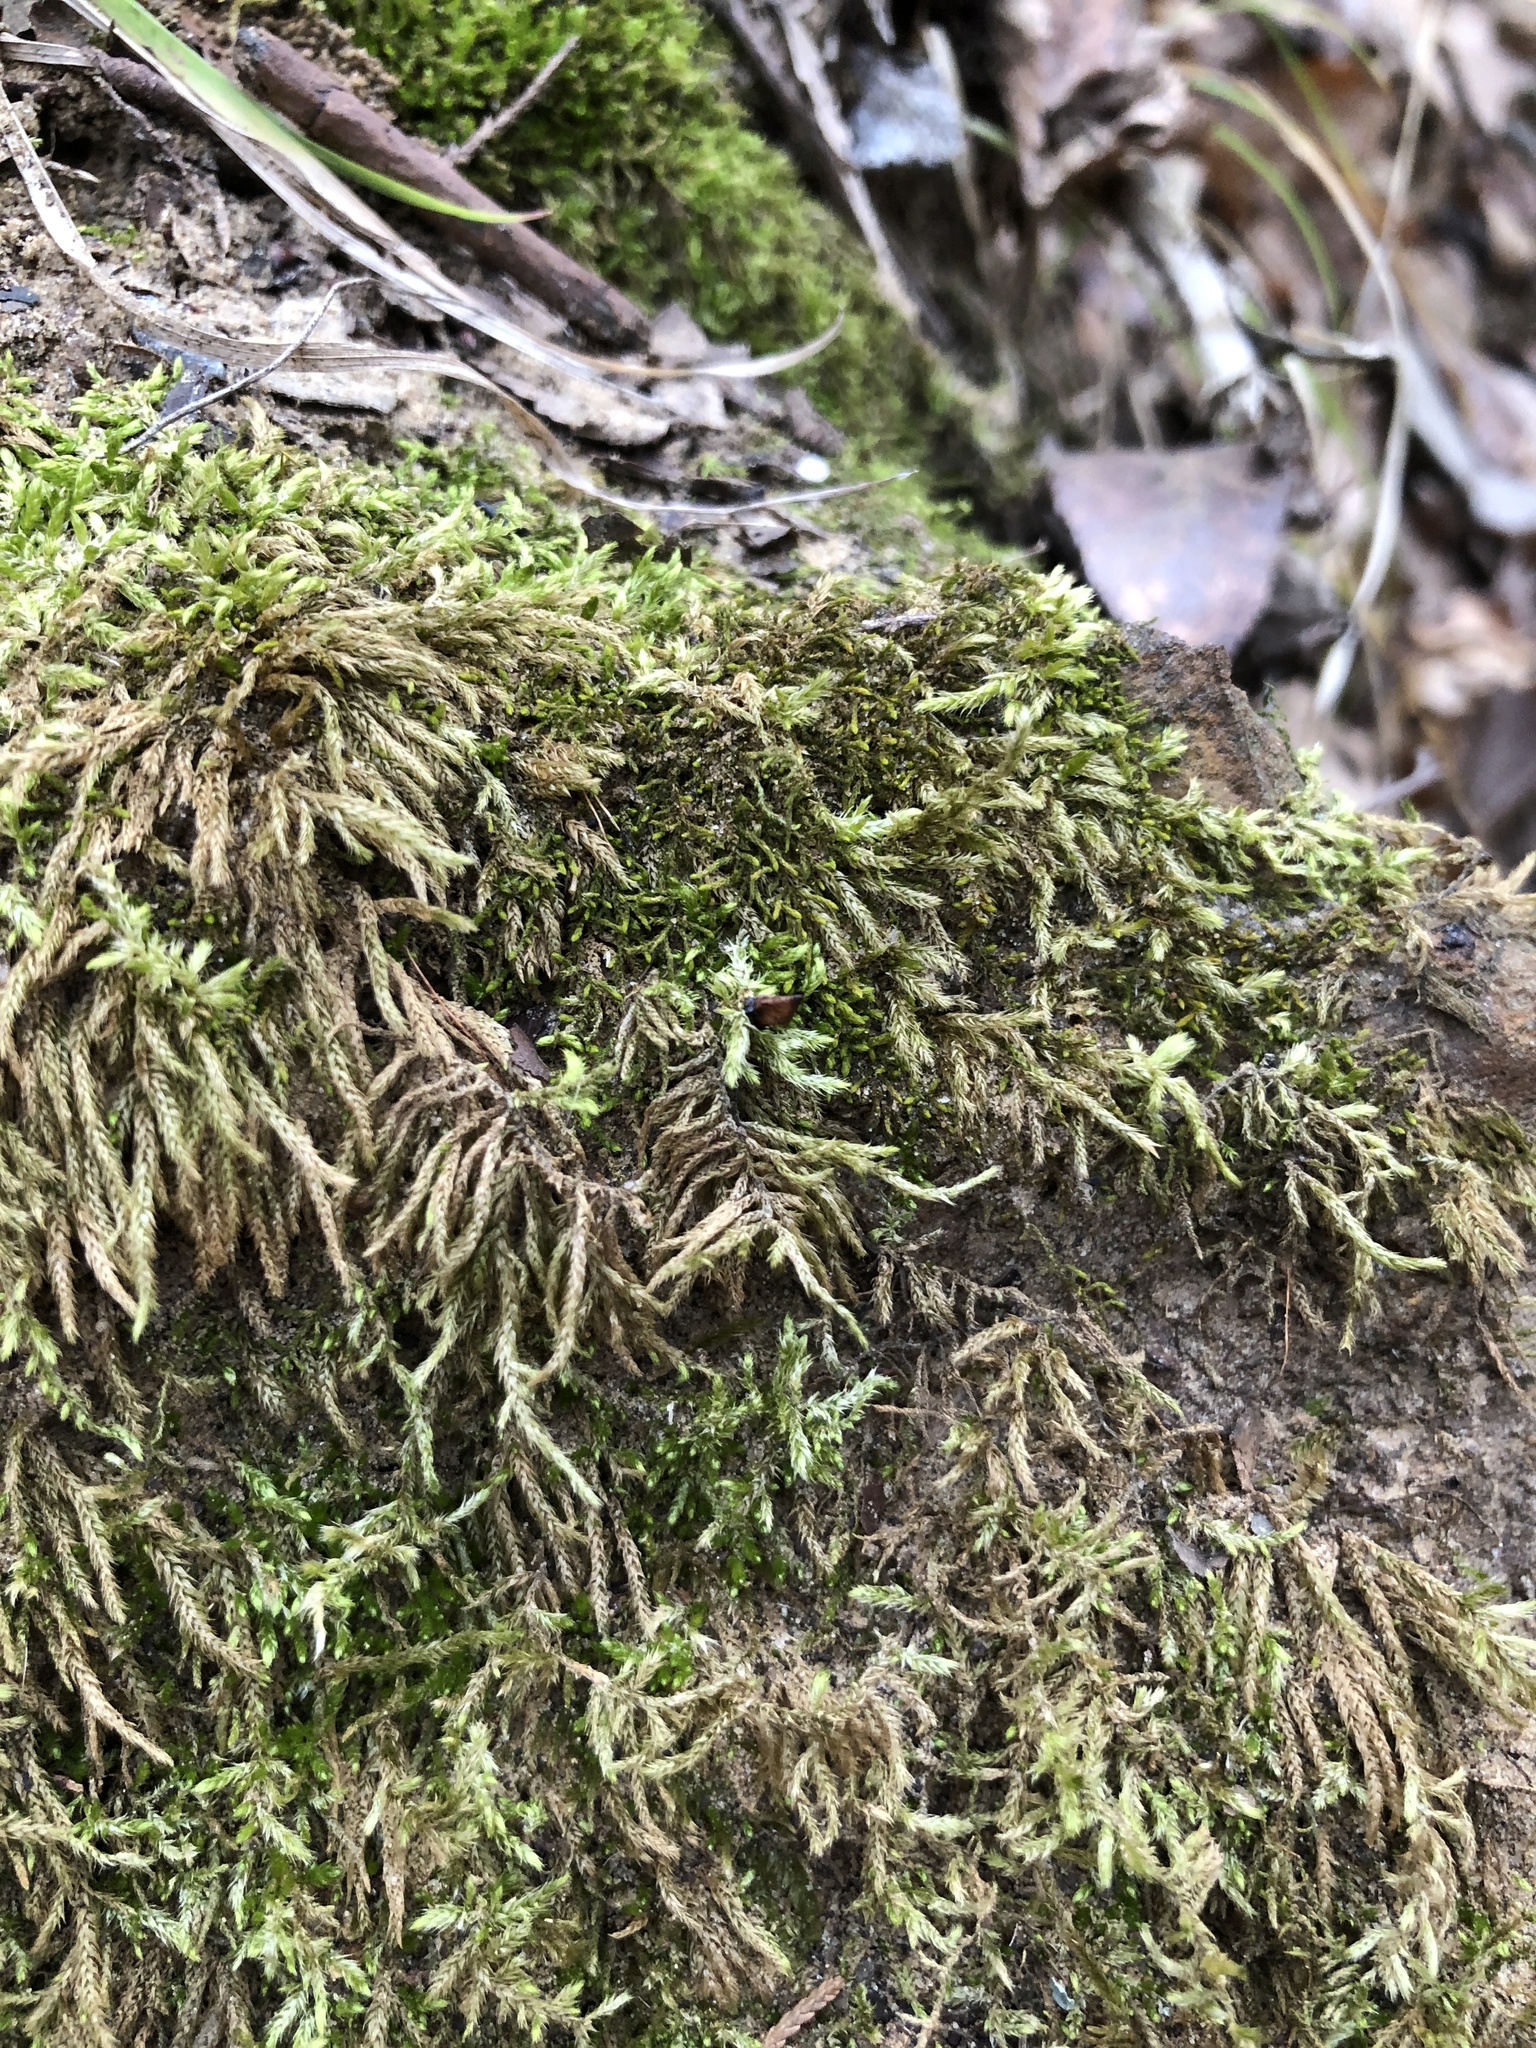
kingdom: Plantae
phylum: Bryophyta
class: Bryopsida
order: Hypnales
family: Entodontaceae
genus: Entodon
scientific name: Entodon seductrix
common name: Round-stemmed entodon moss
